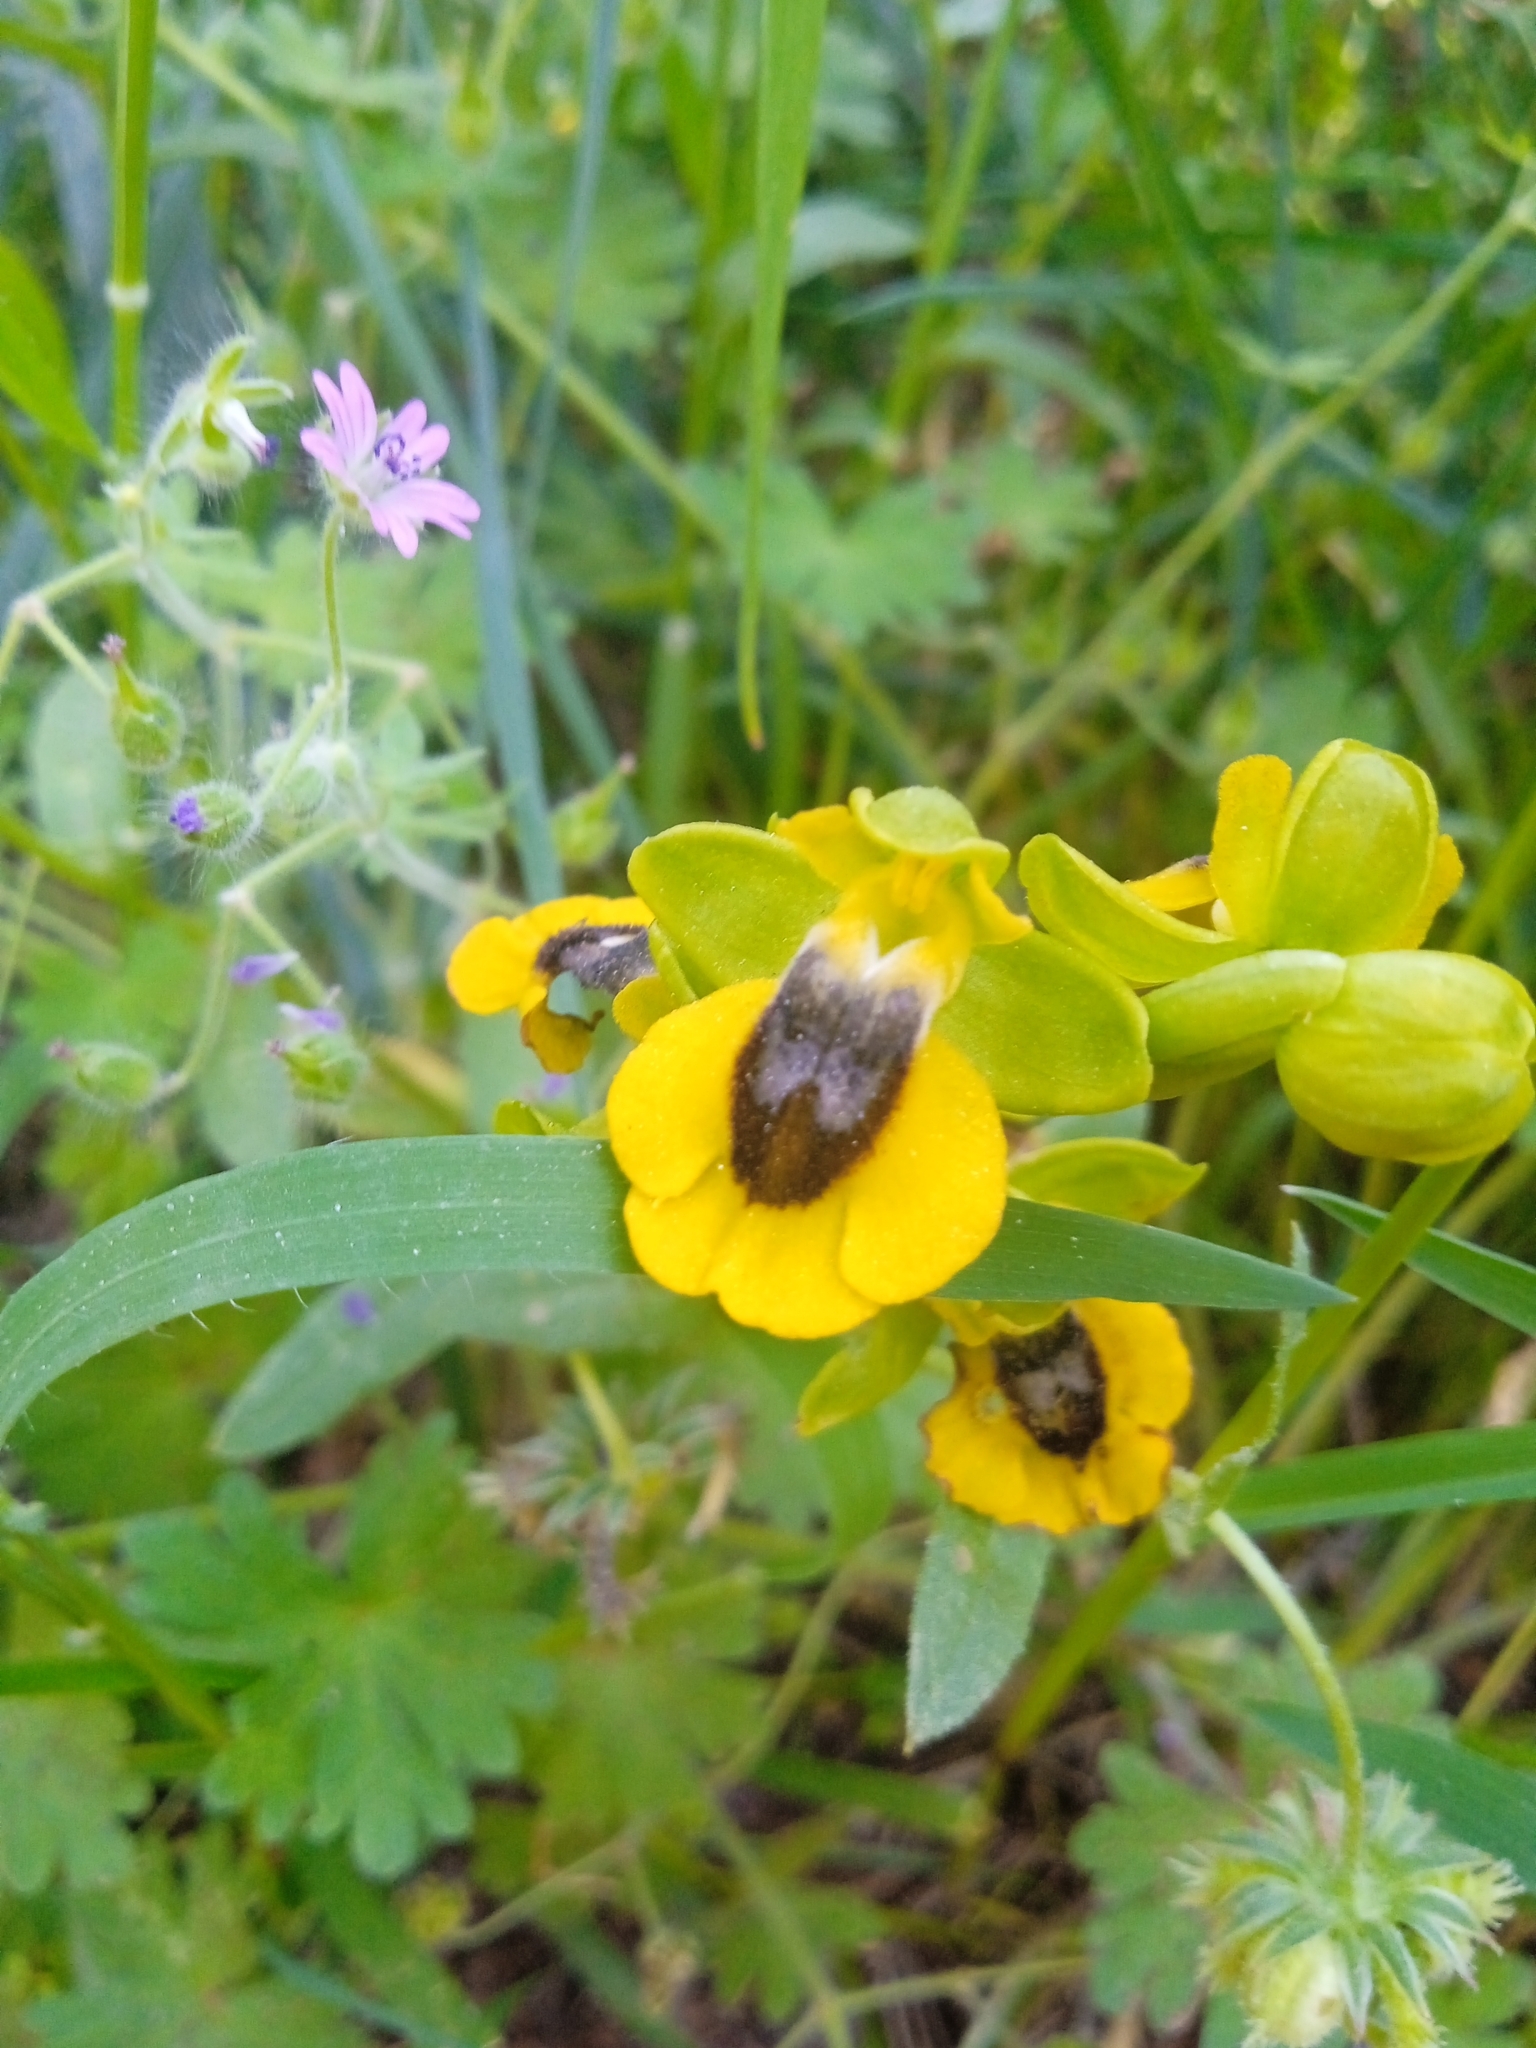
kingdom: Plantae
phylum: Tracheophyta
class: Liliopsida
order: Asparagales
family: Orchidaceae
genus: Ophrys
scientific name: Ophrys lutea
